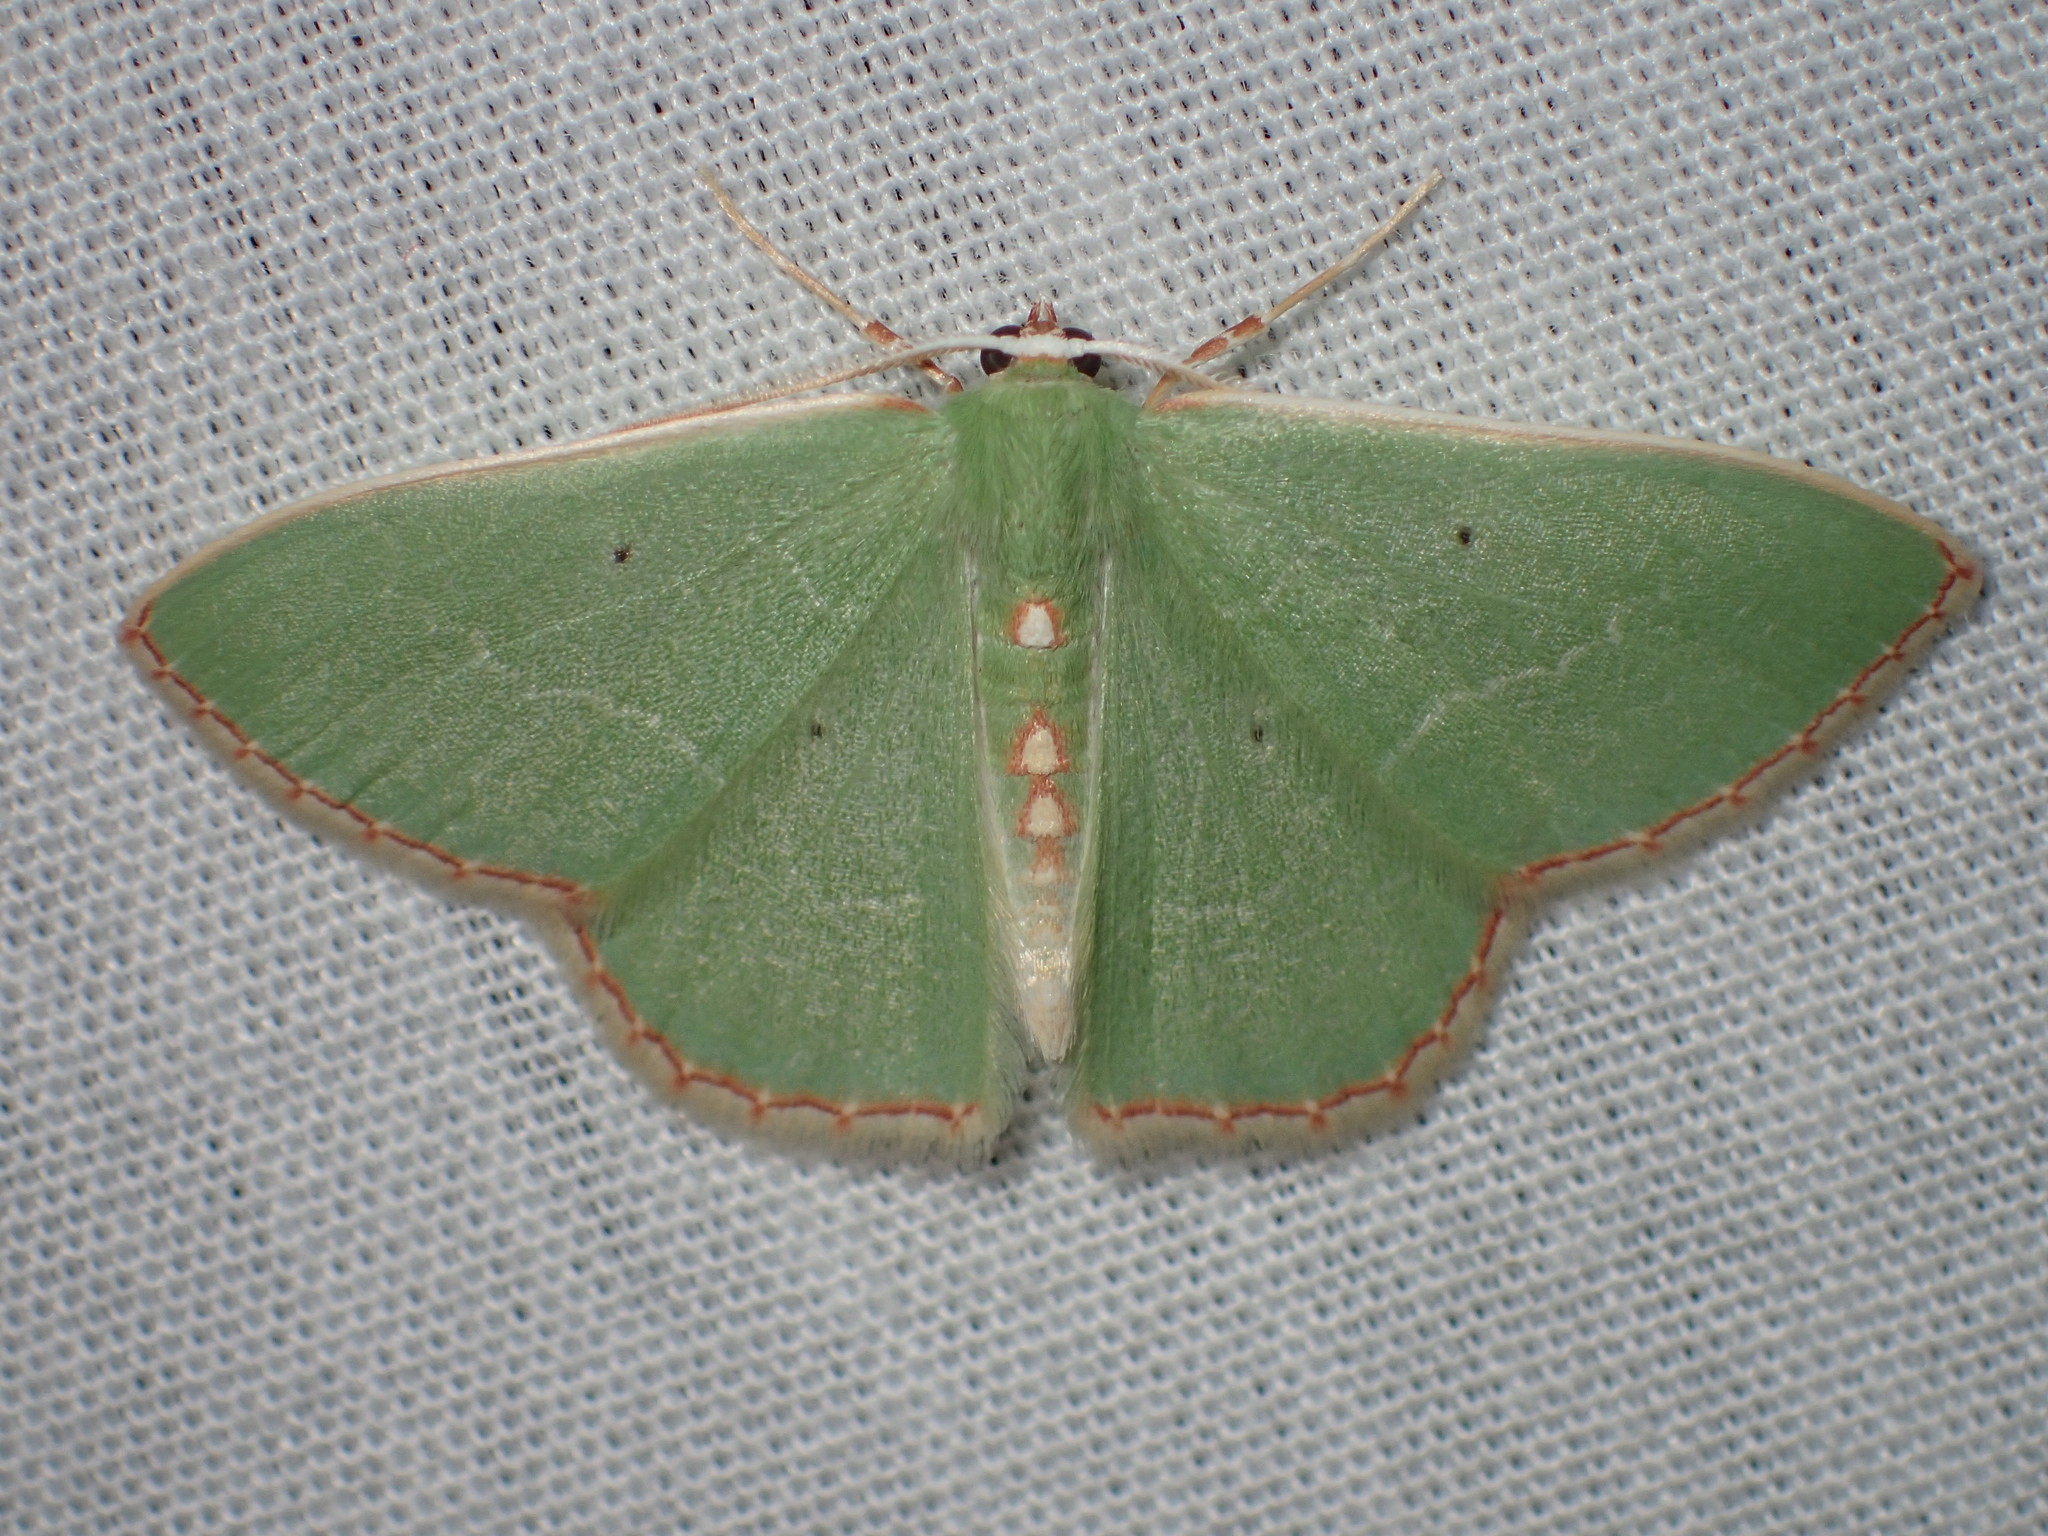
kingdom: Animalia
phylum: Arthropoda
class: Insecta
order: Lepidoptera
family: Geometridae
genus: Nemoria
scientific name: Nemoria lixaria
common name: Red-bordered emerald
